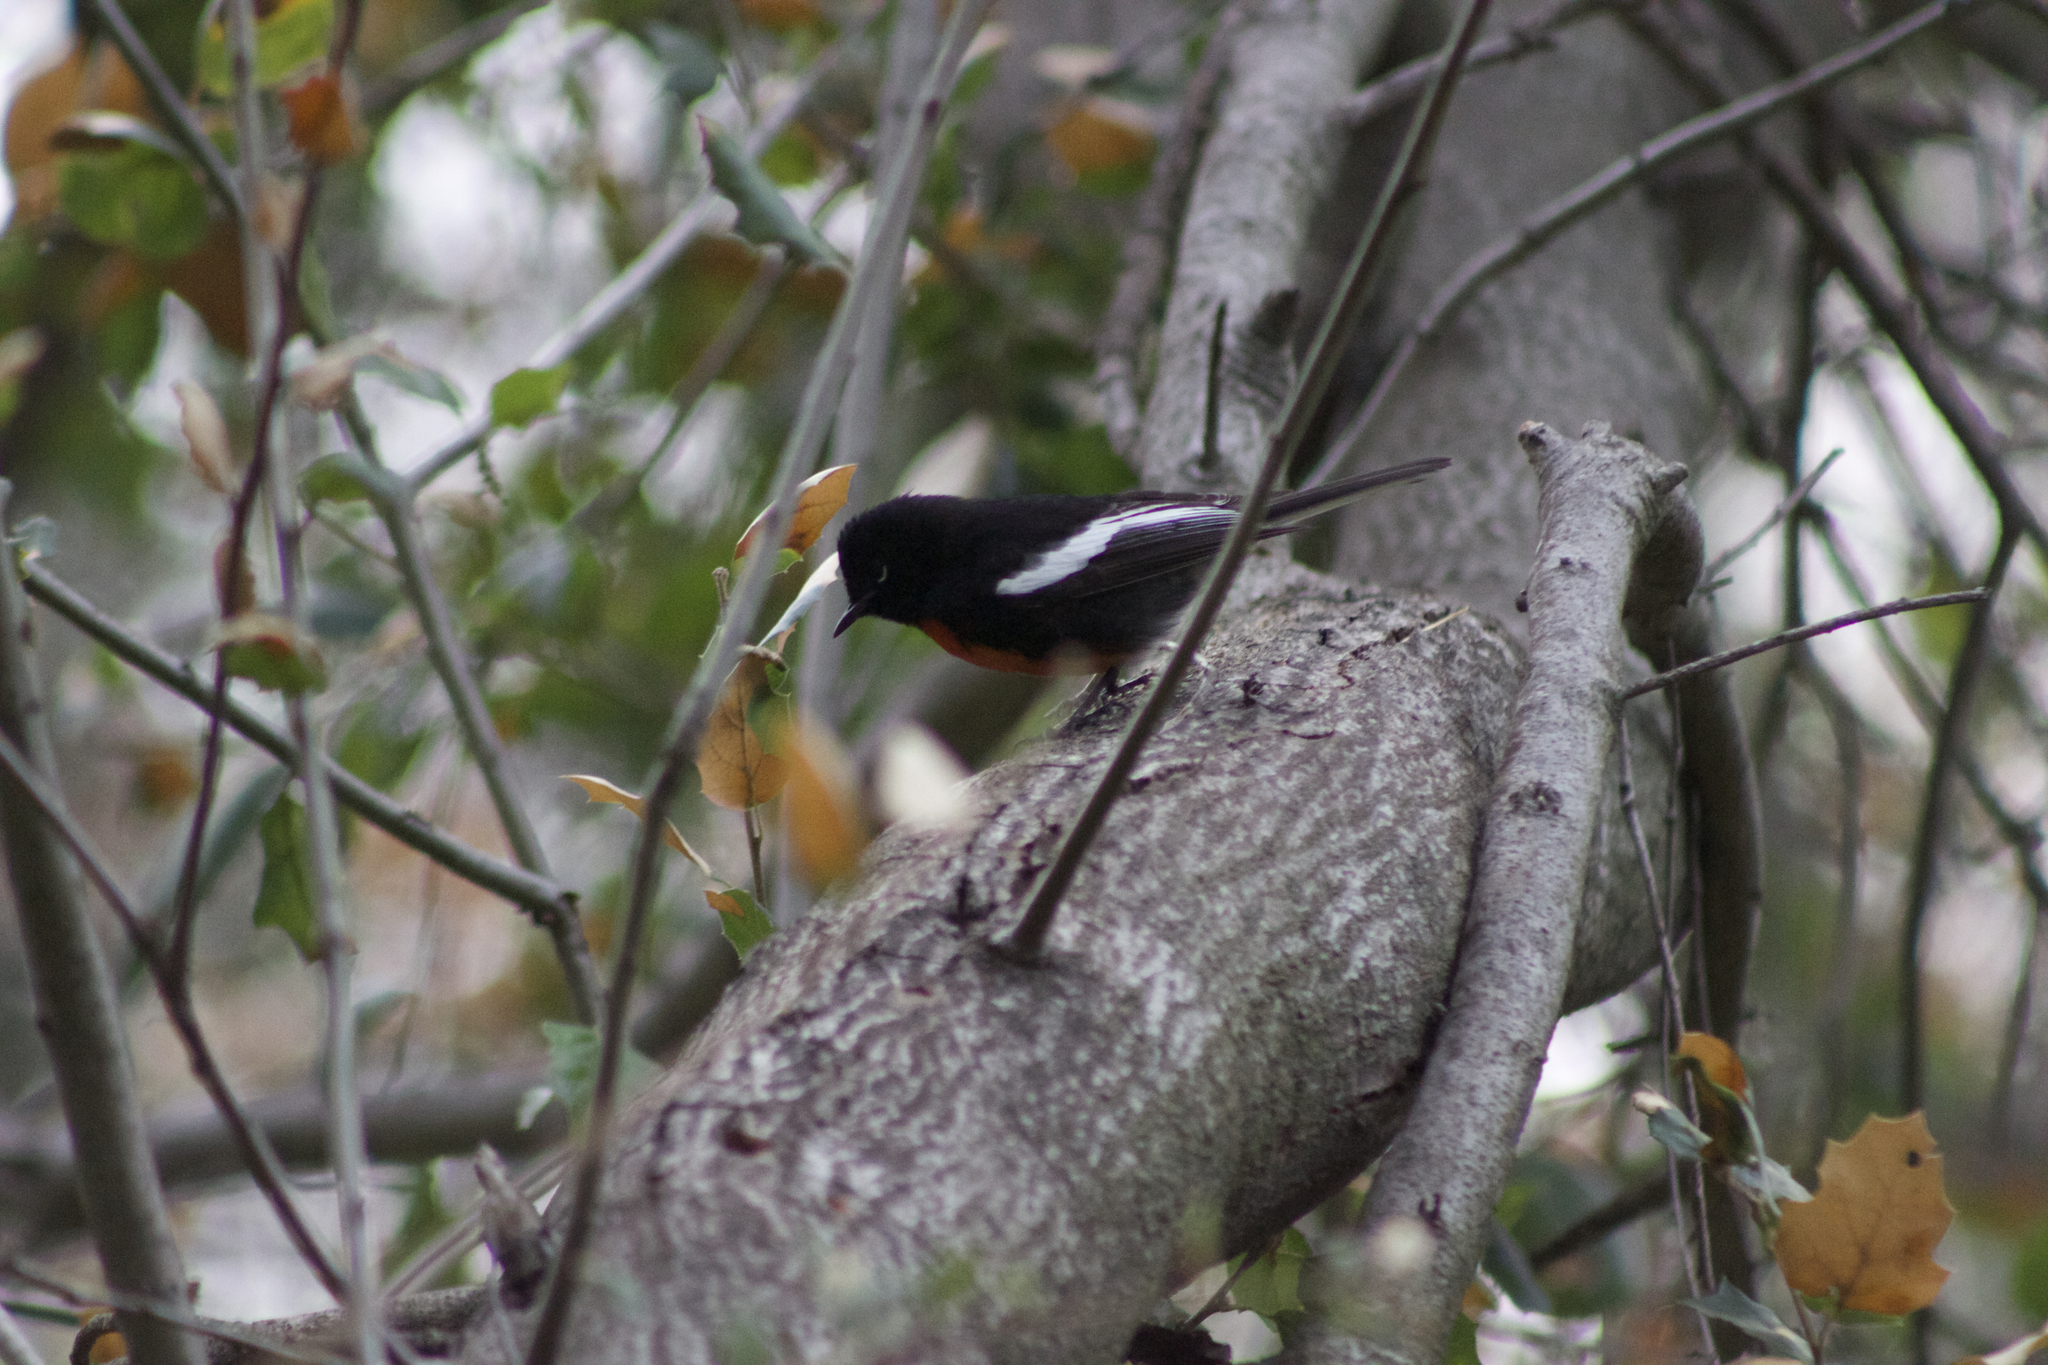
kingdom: Animalia
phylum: Chordata
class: Aves
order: Passeriformes
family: Parulidae
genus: Myioborus
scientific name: Myioborus pictus
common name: Painted whitestart
